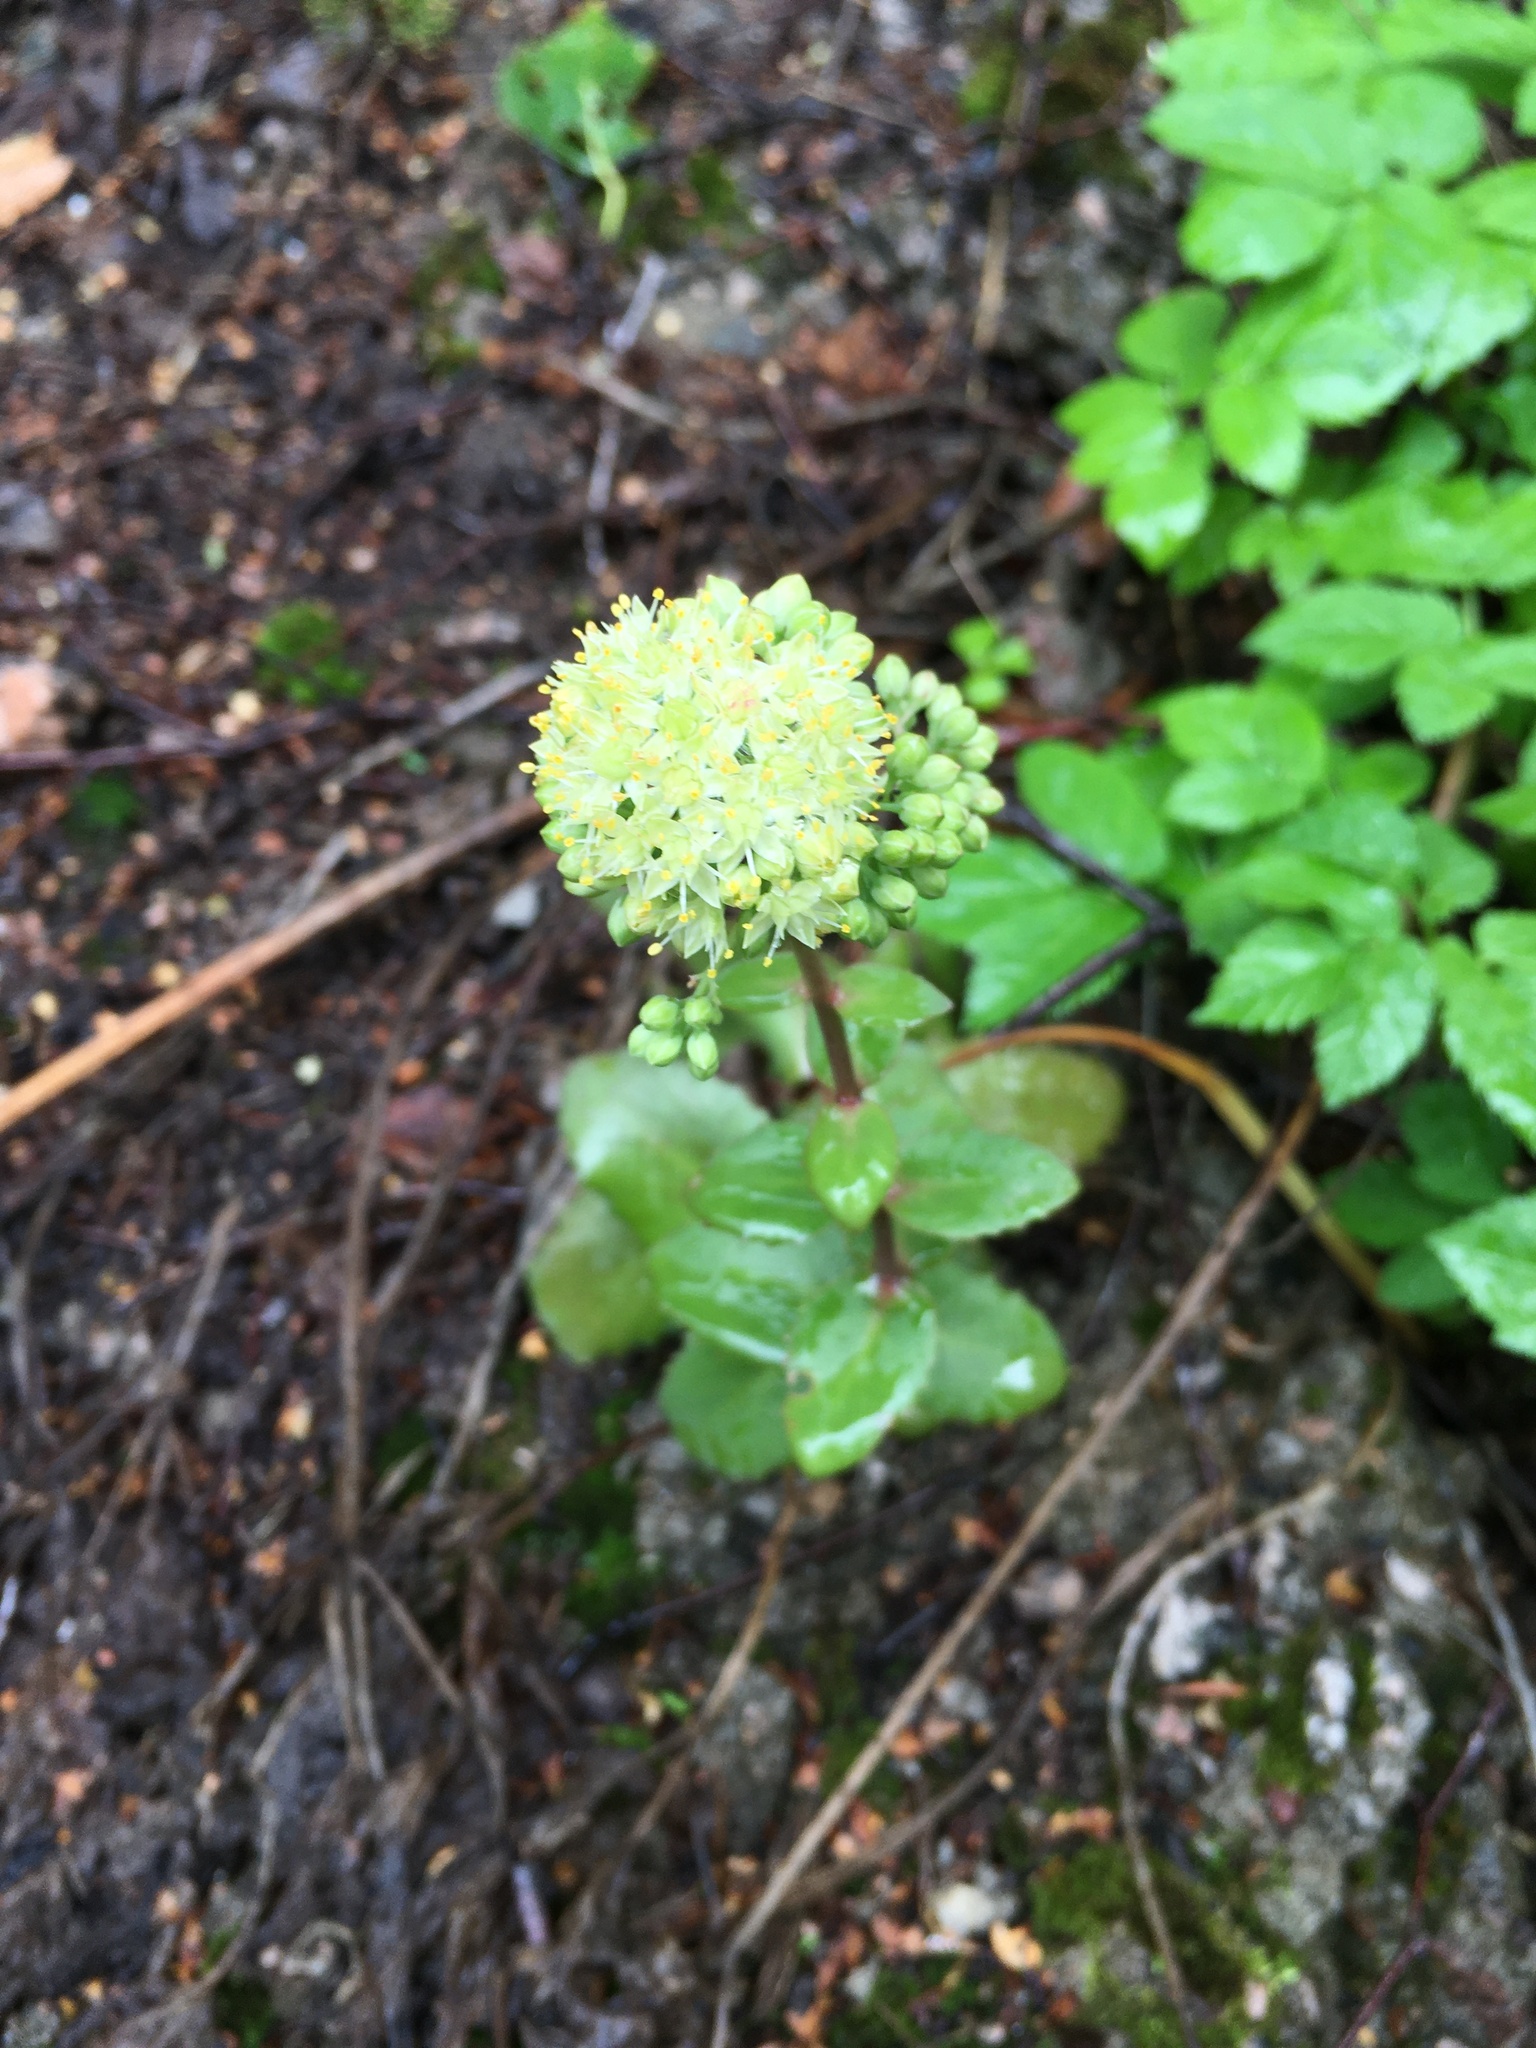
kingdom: Plantae
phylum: Tracheophyta
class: Magnoliopsida
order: Saxifragales
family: Crassulaceae
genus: Hylotelephium
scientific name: Hylotelephium maximum
